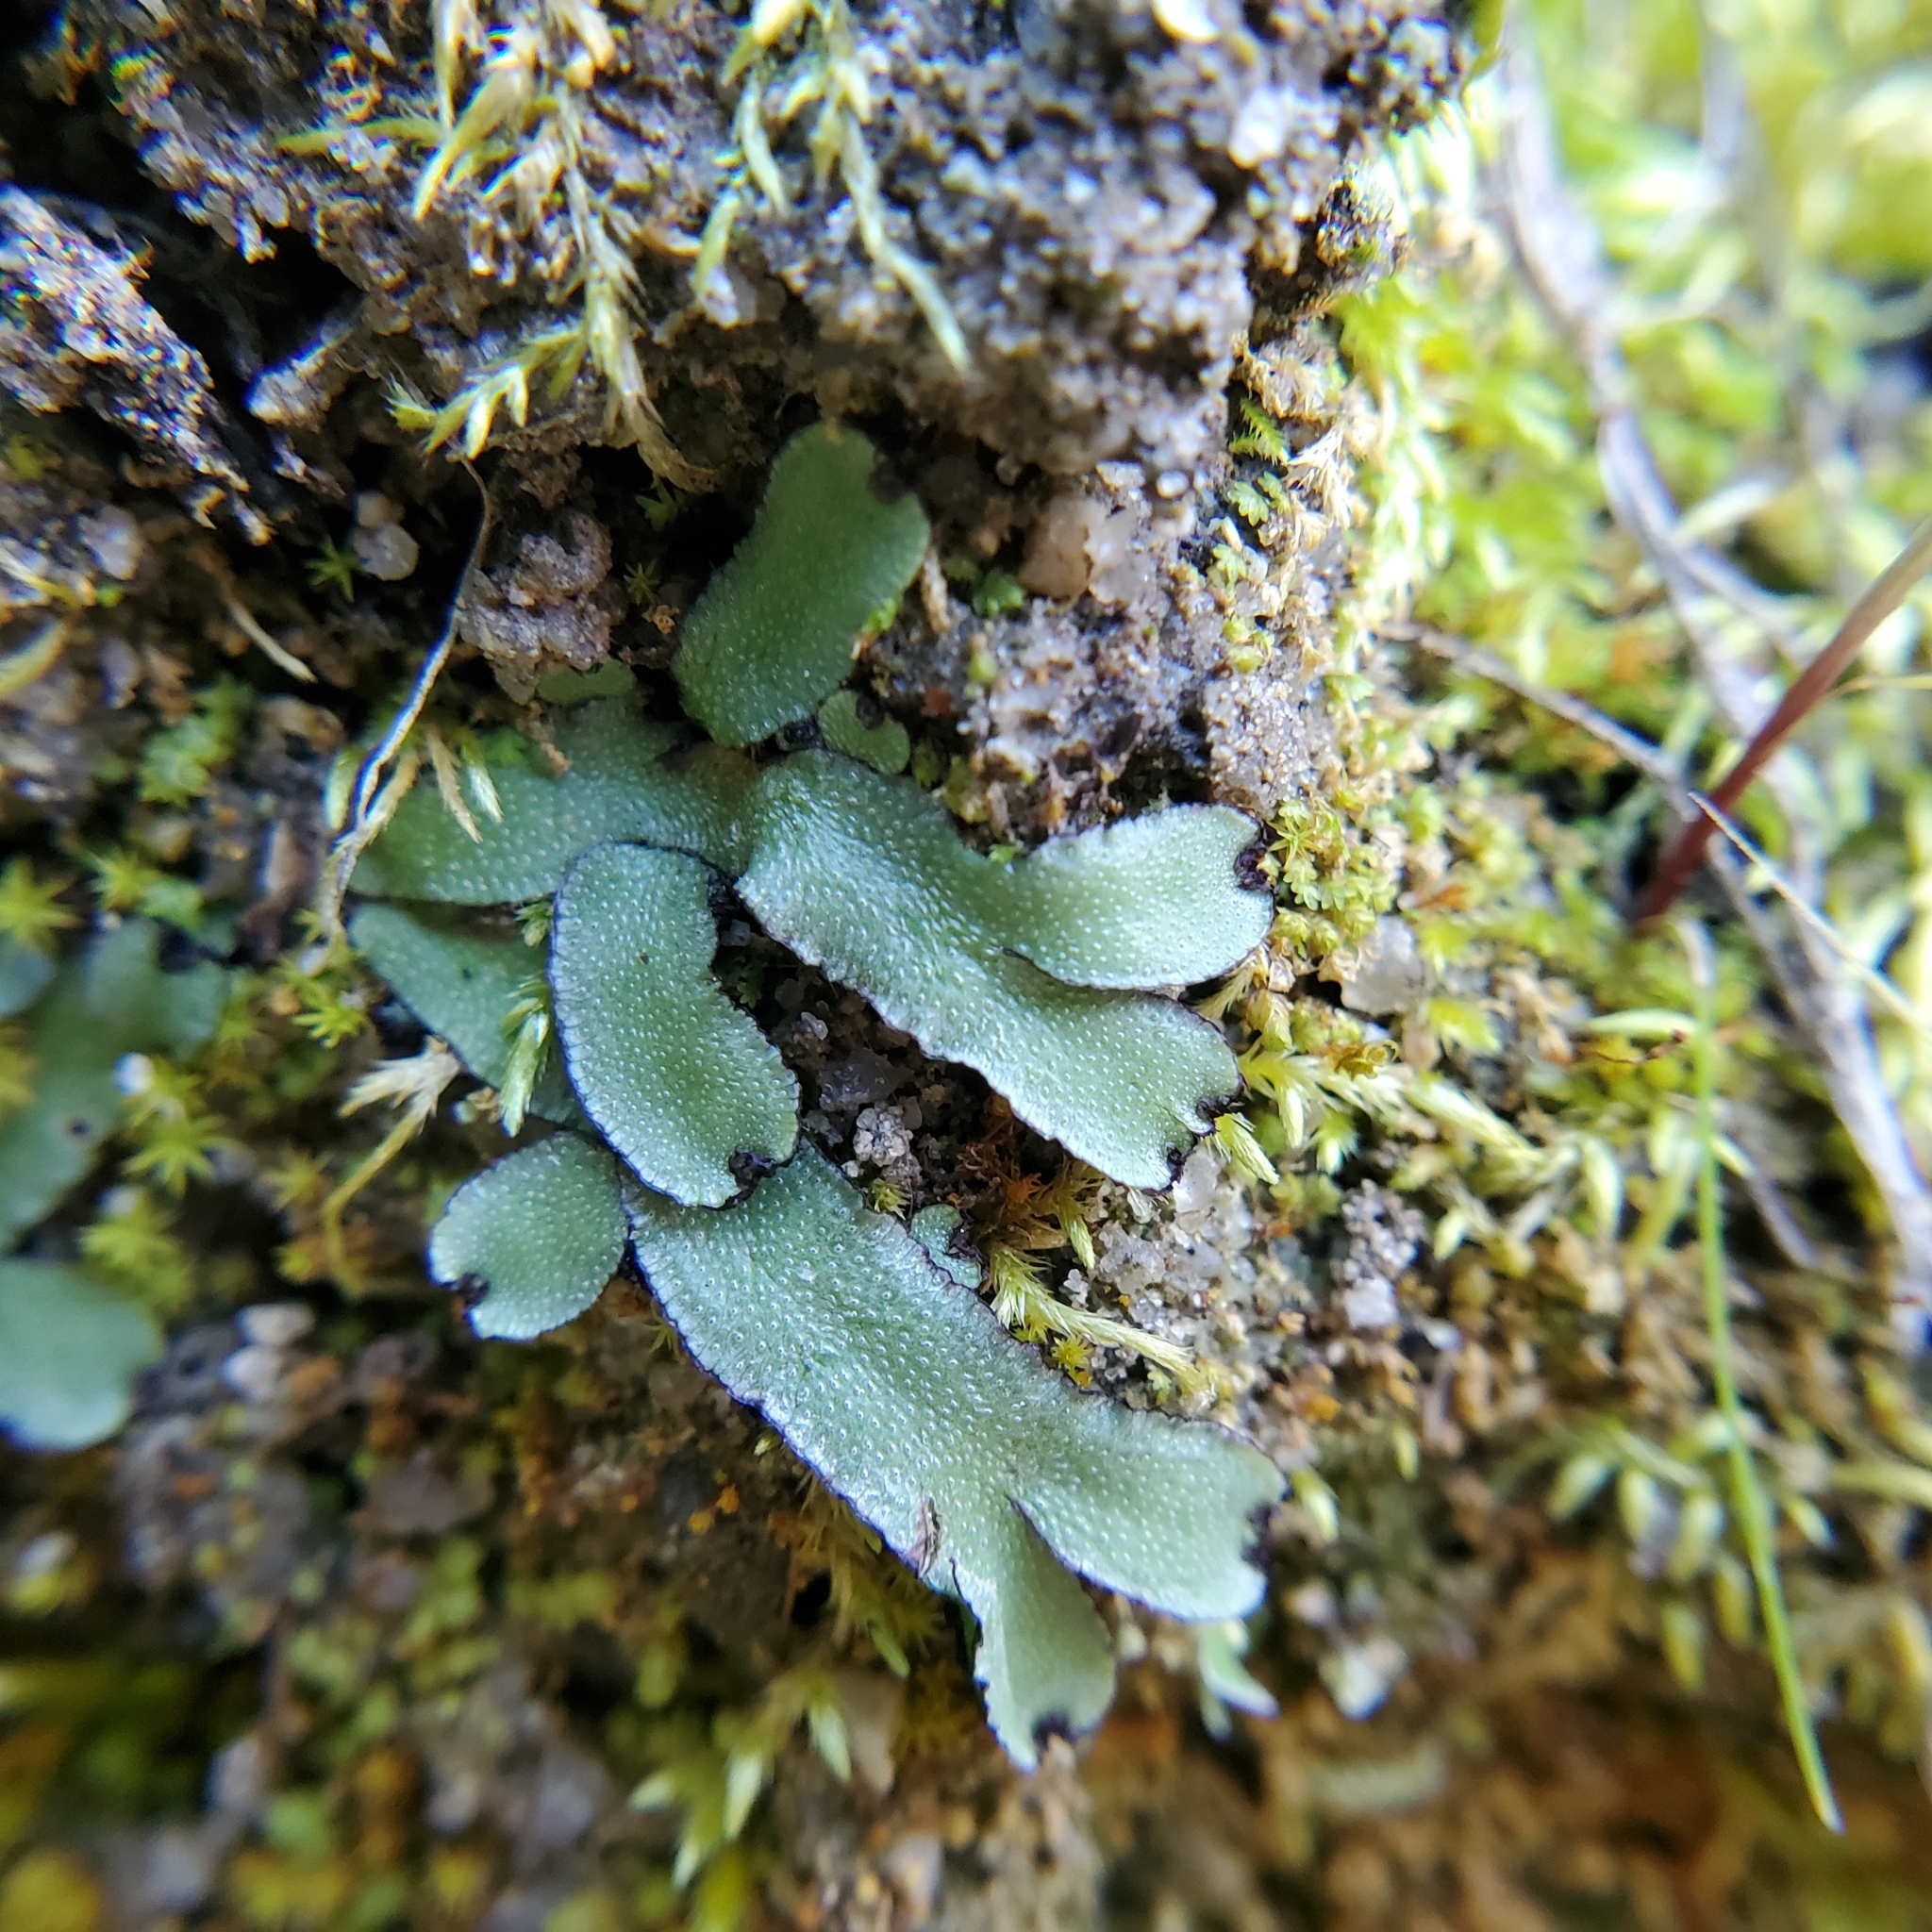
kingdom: Plantae
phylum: Marchantiophyta
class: Marchantiopsida
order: Marchantiales
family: Aytoniaceae
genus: Asterella
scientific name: Asterella californica
